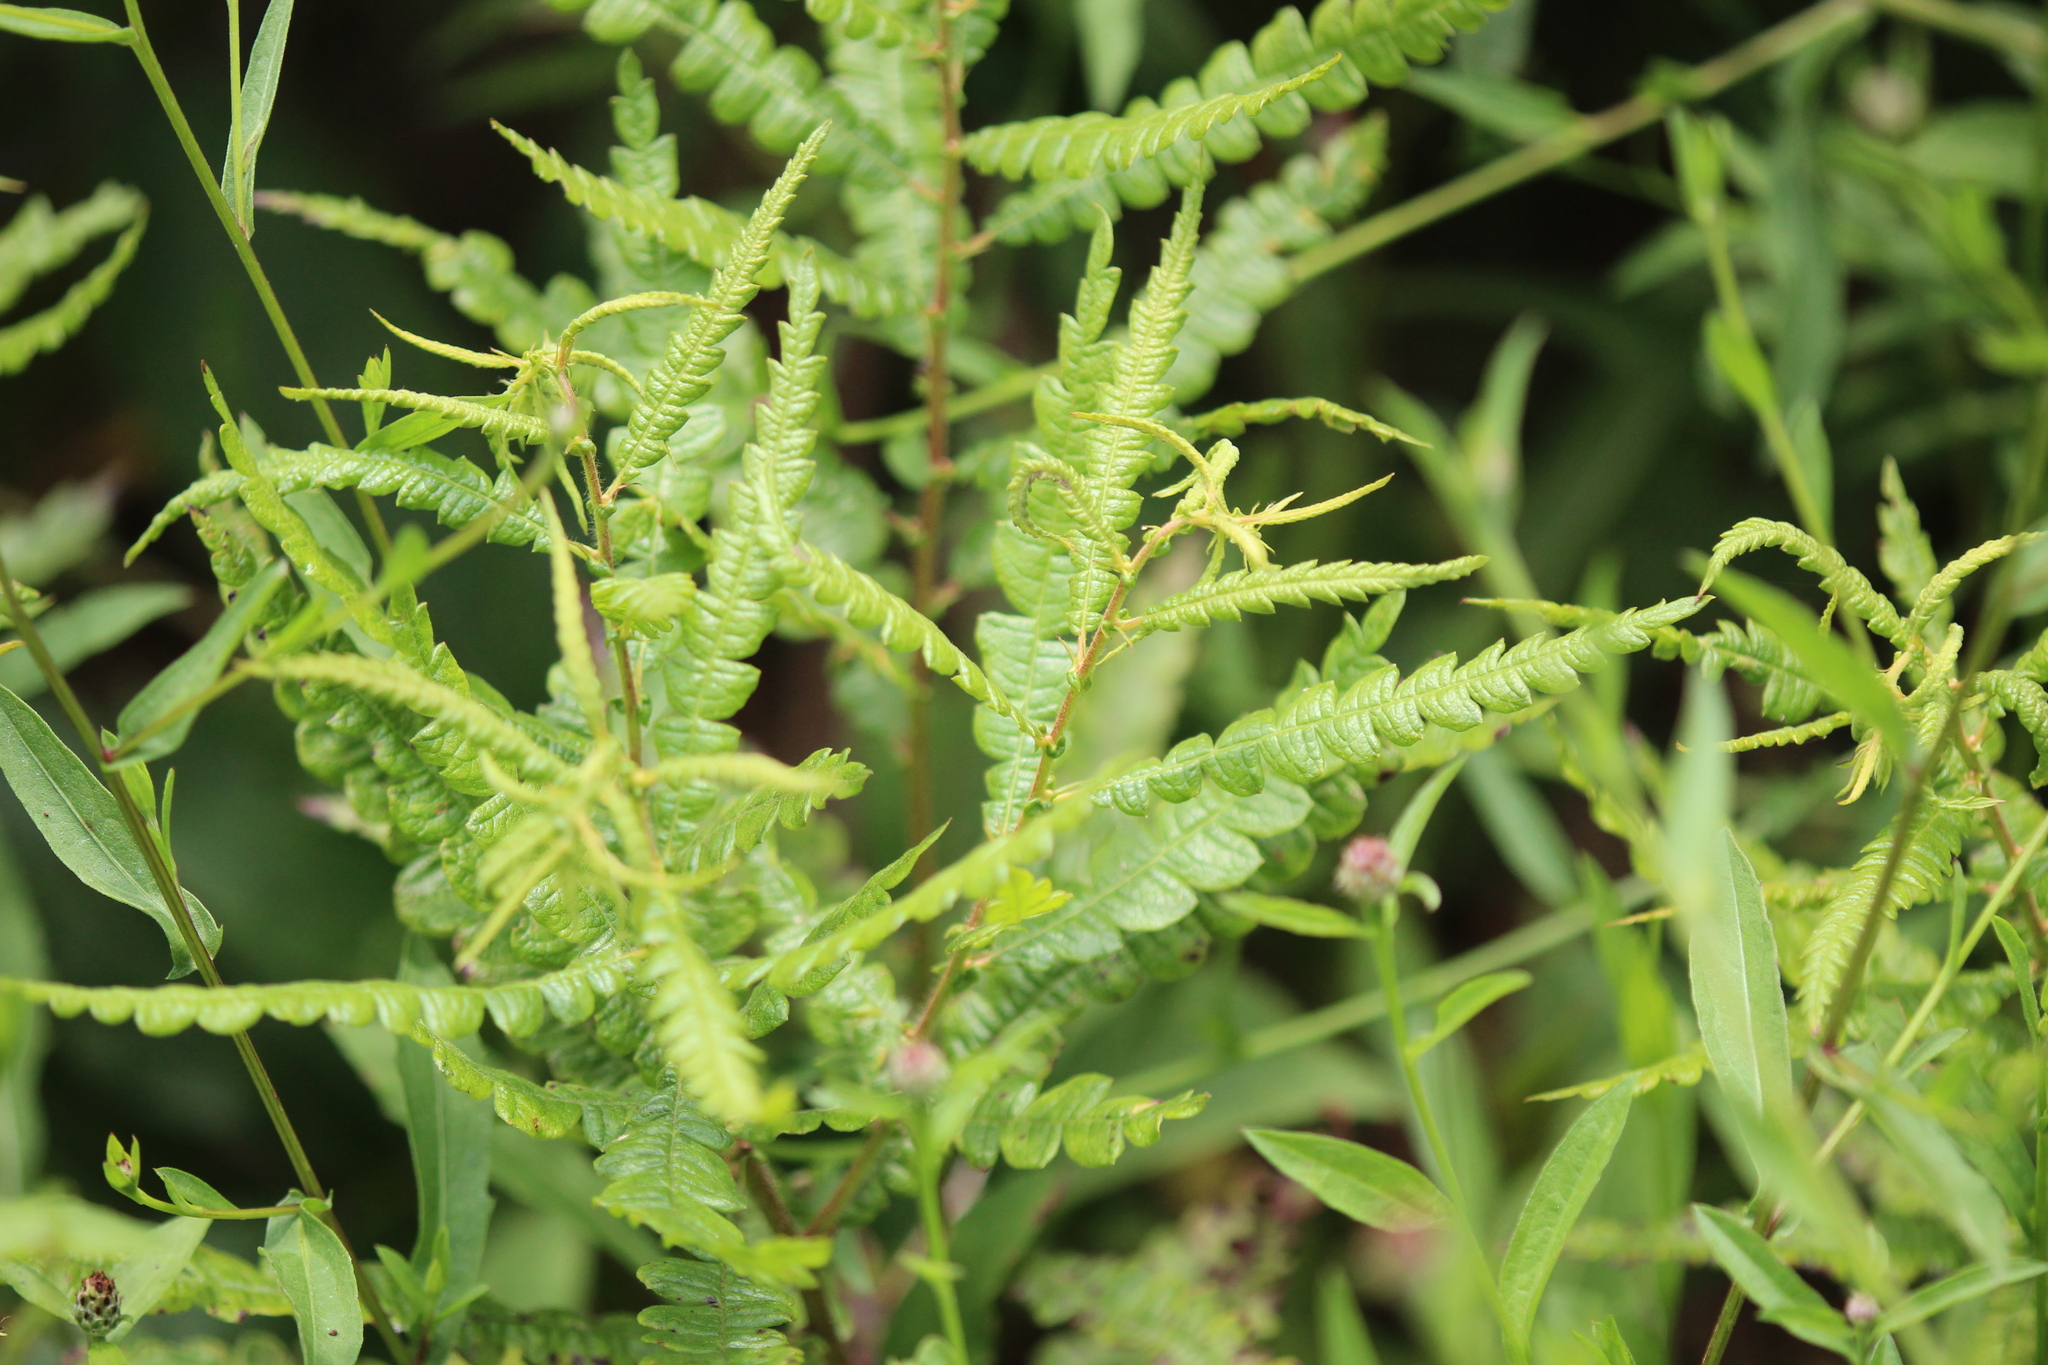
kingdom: Plantae
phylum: Tracheophyta
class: Magnoliopsida
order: Fagales
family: Myricaceae
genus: Comptonia
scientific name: Comptonia peregrina
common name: Sweet-fern
